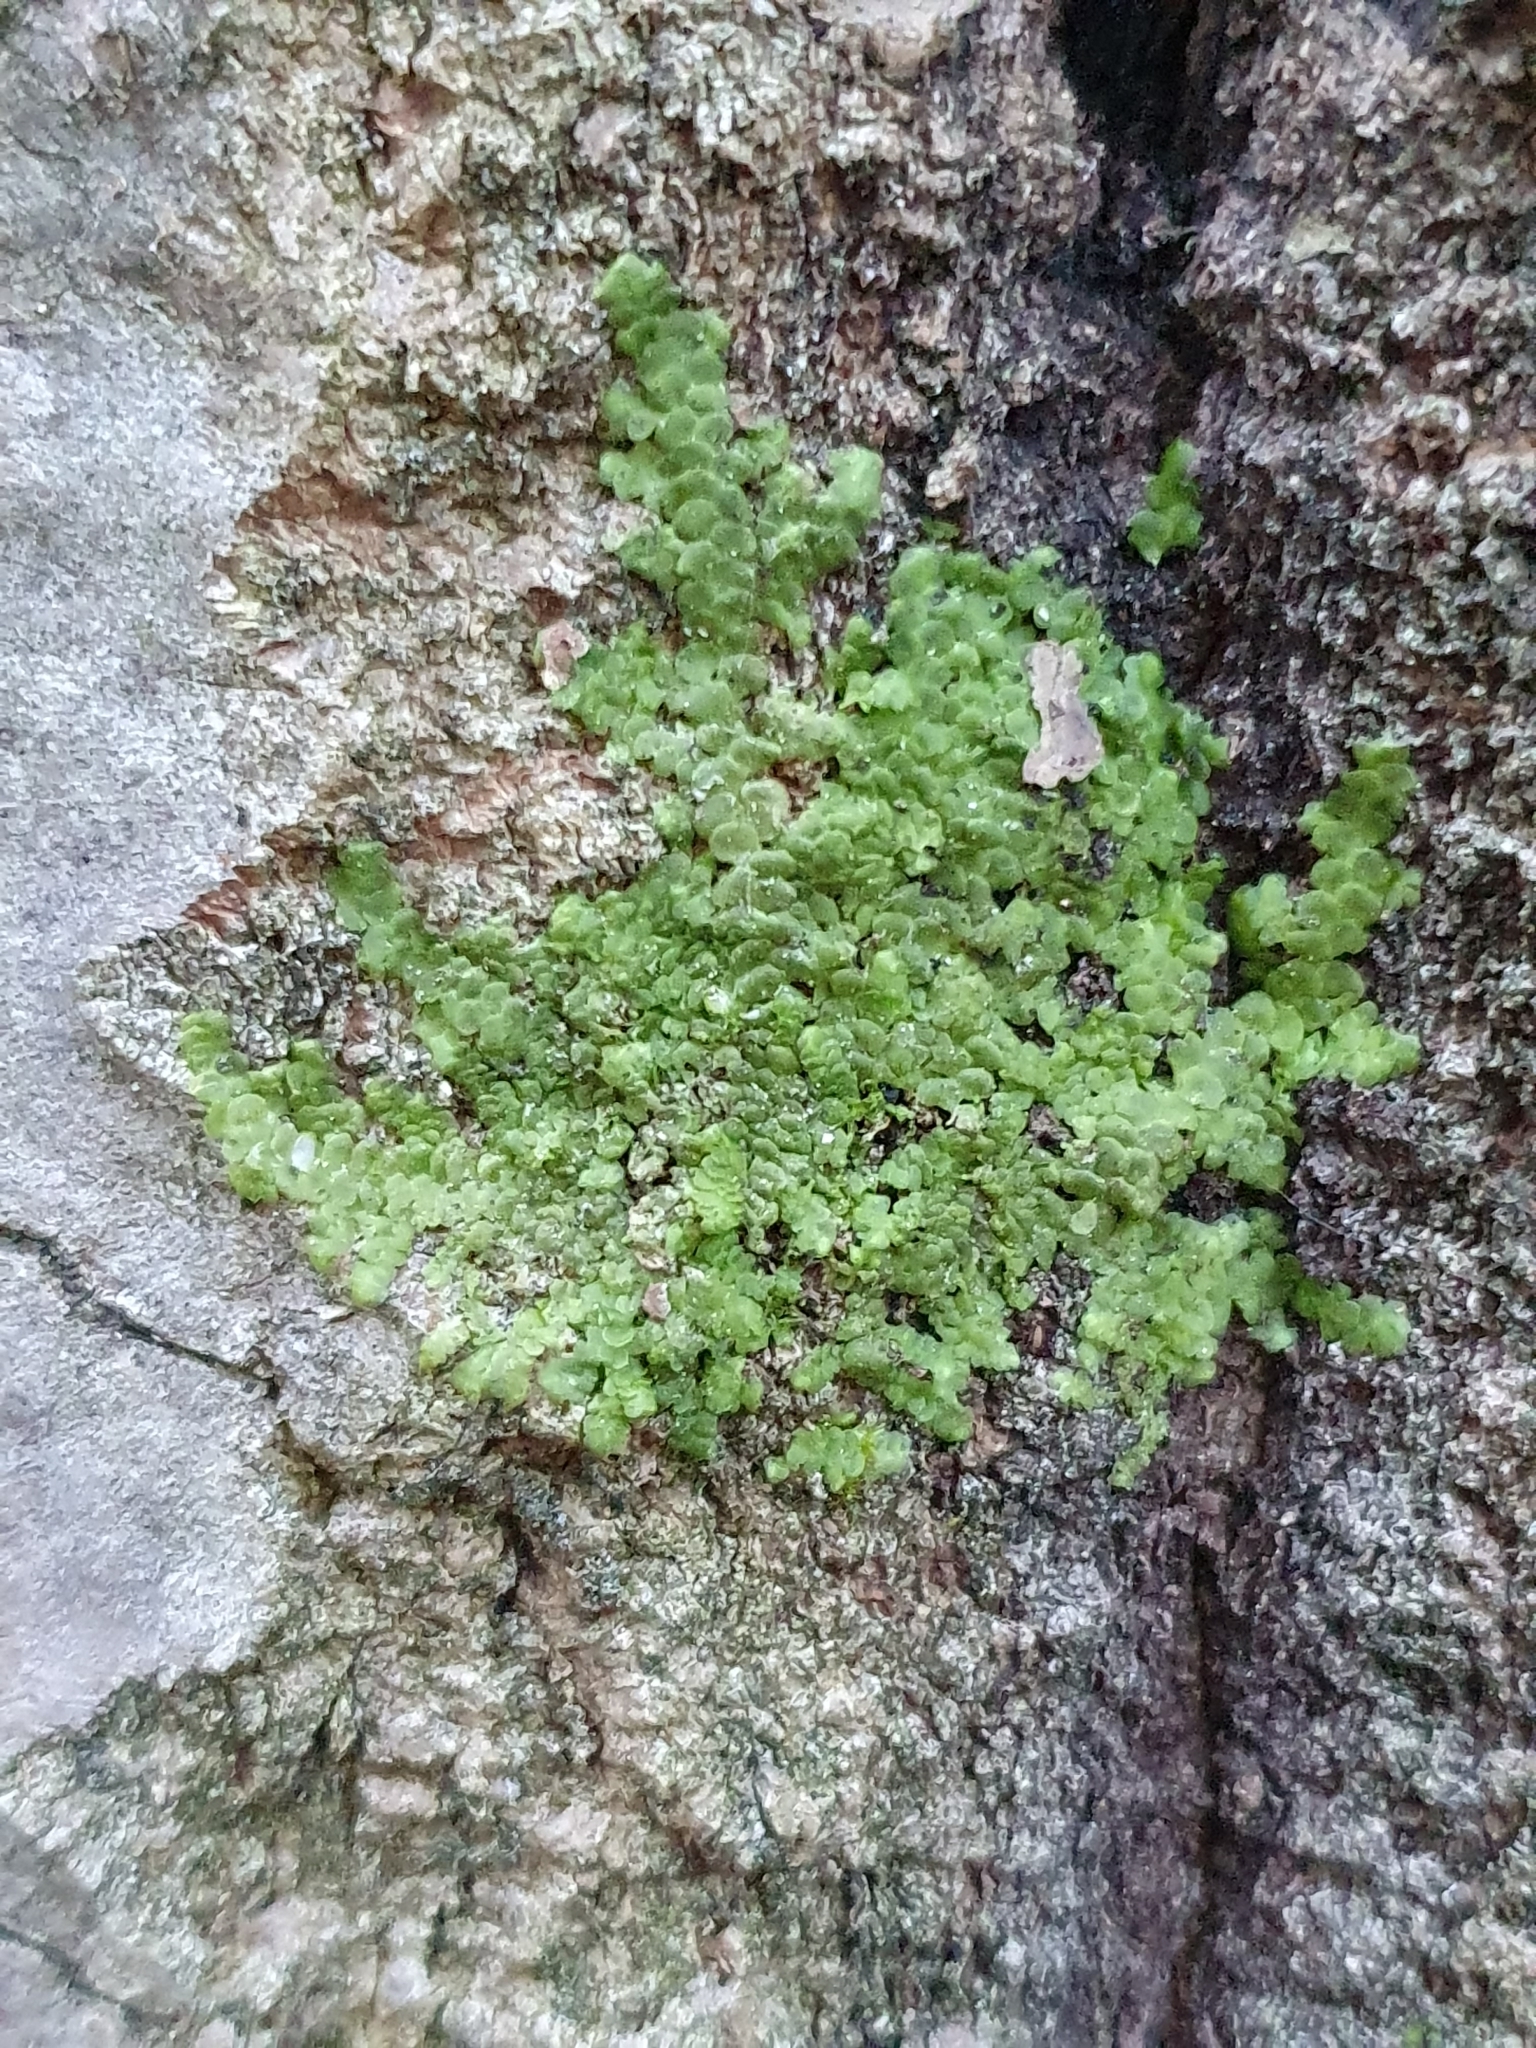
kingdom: Plantae
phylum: Marchantiophyta
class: Jungermanniopsida
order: Porellales
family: Radulaceae
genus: Radula
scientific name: Radula complanata
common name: Flat-leaved scalewort
